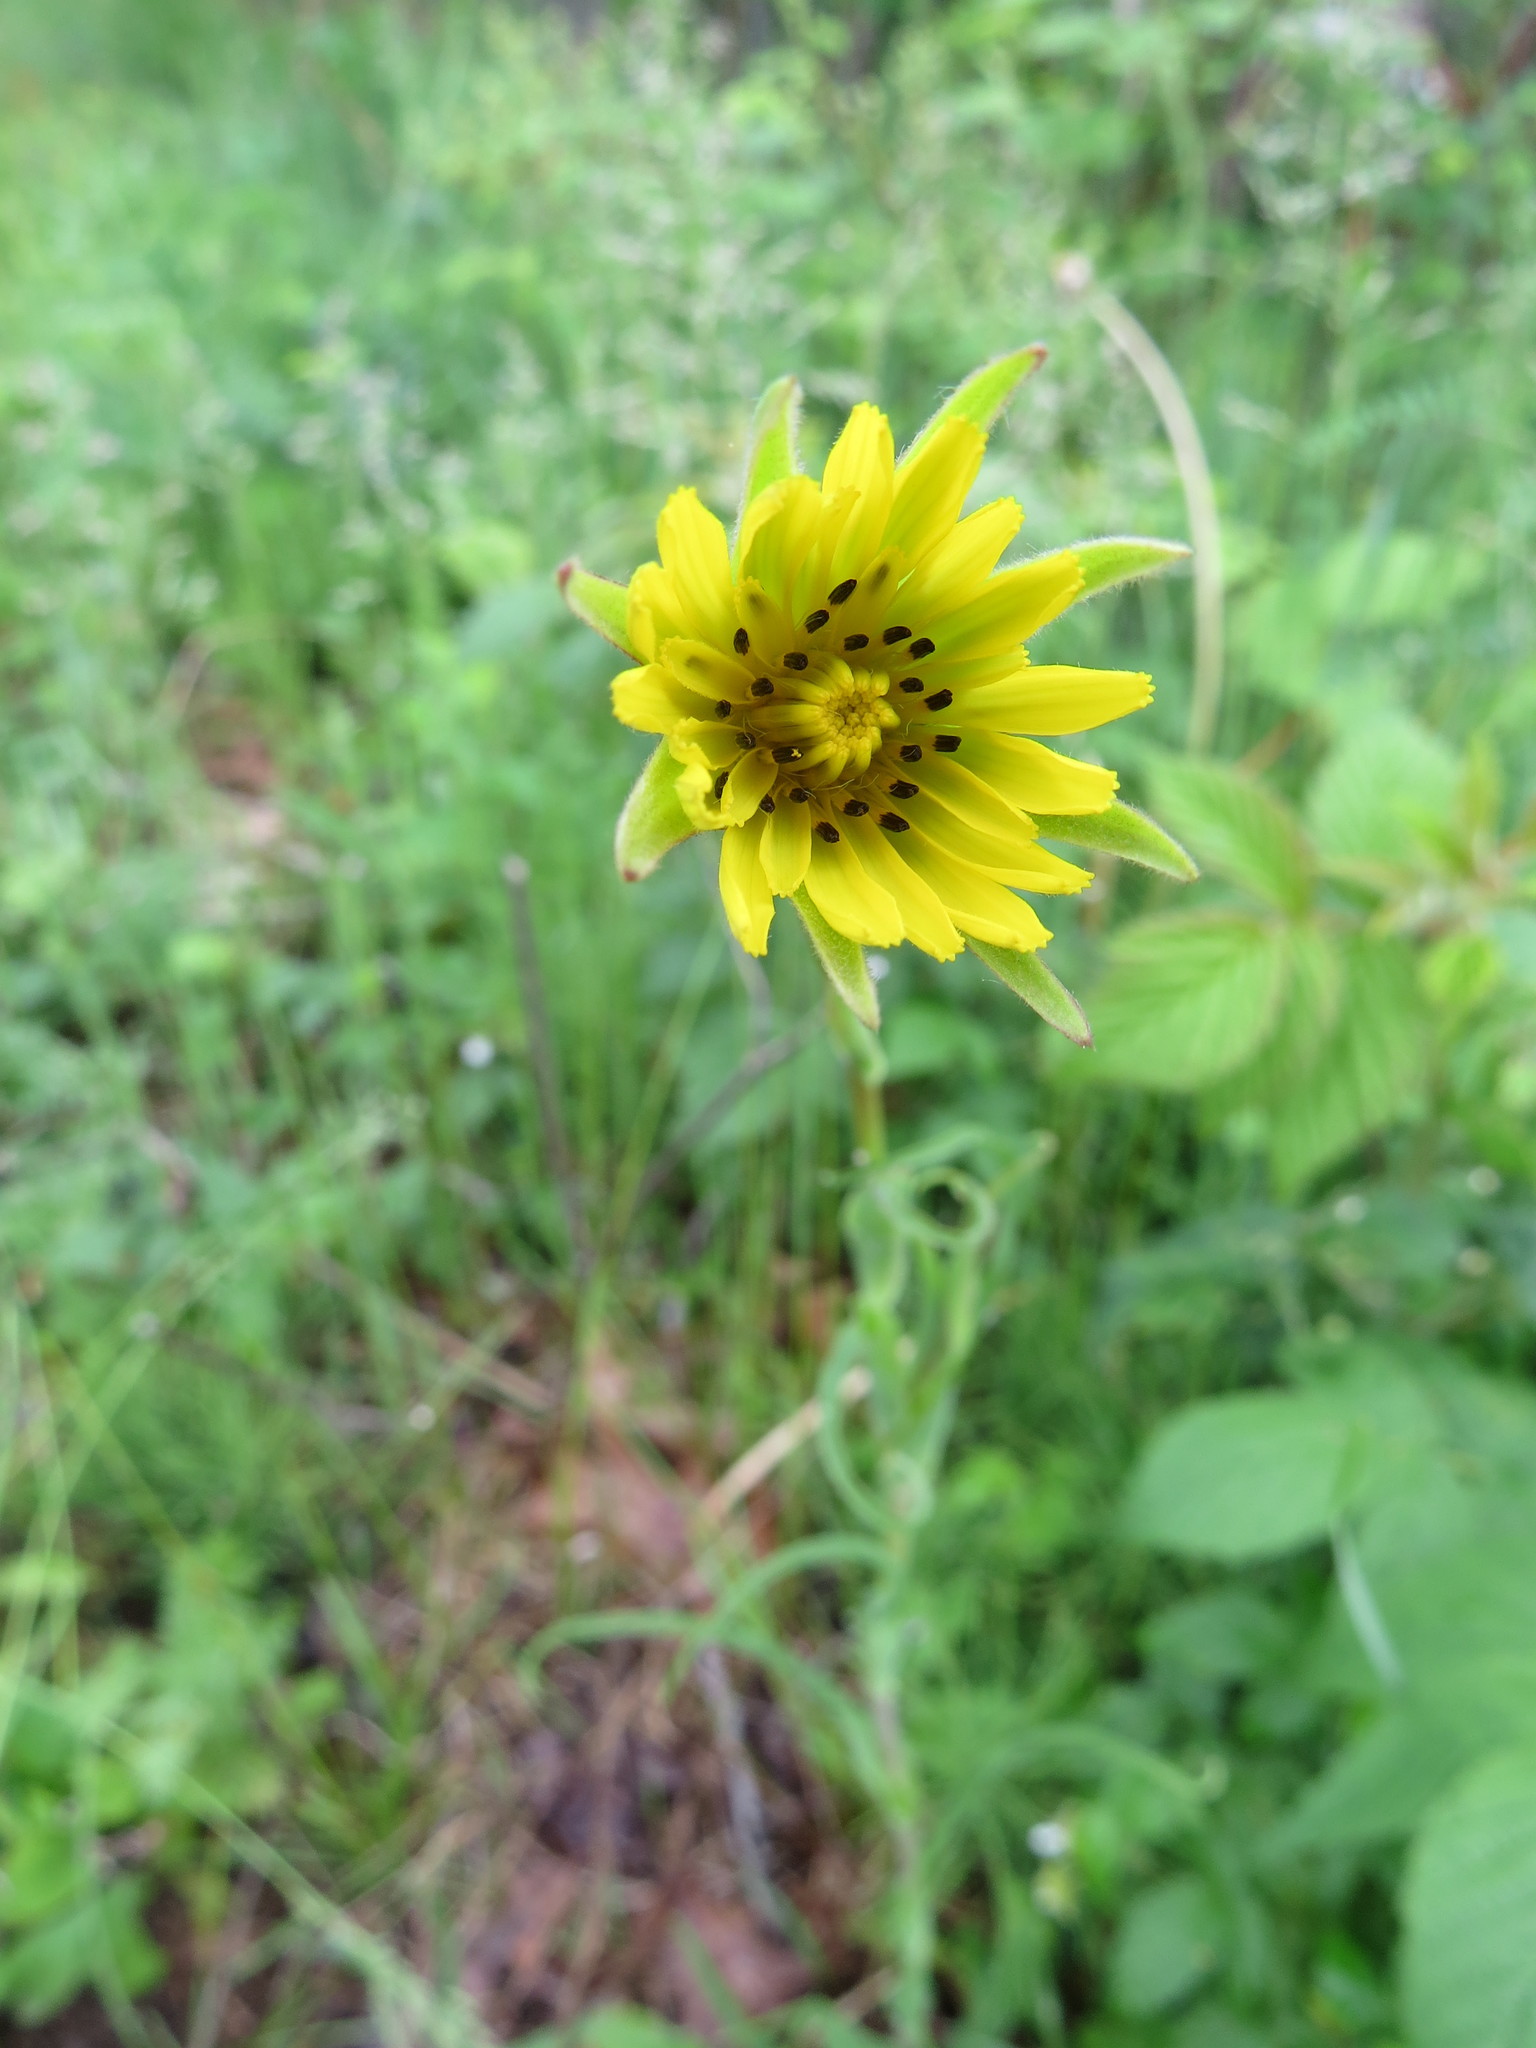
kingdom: Plantae
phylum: Tracheophyta
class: Magnoliopsida
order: Asterales
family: Asteraceae
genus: Tragopogon
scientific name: Tragopogon pratensis
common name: Goat's-beard
